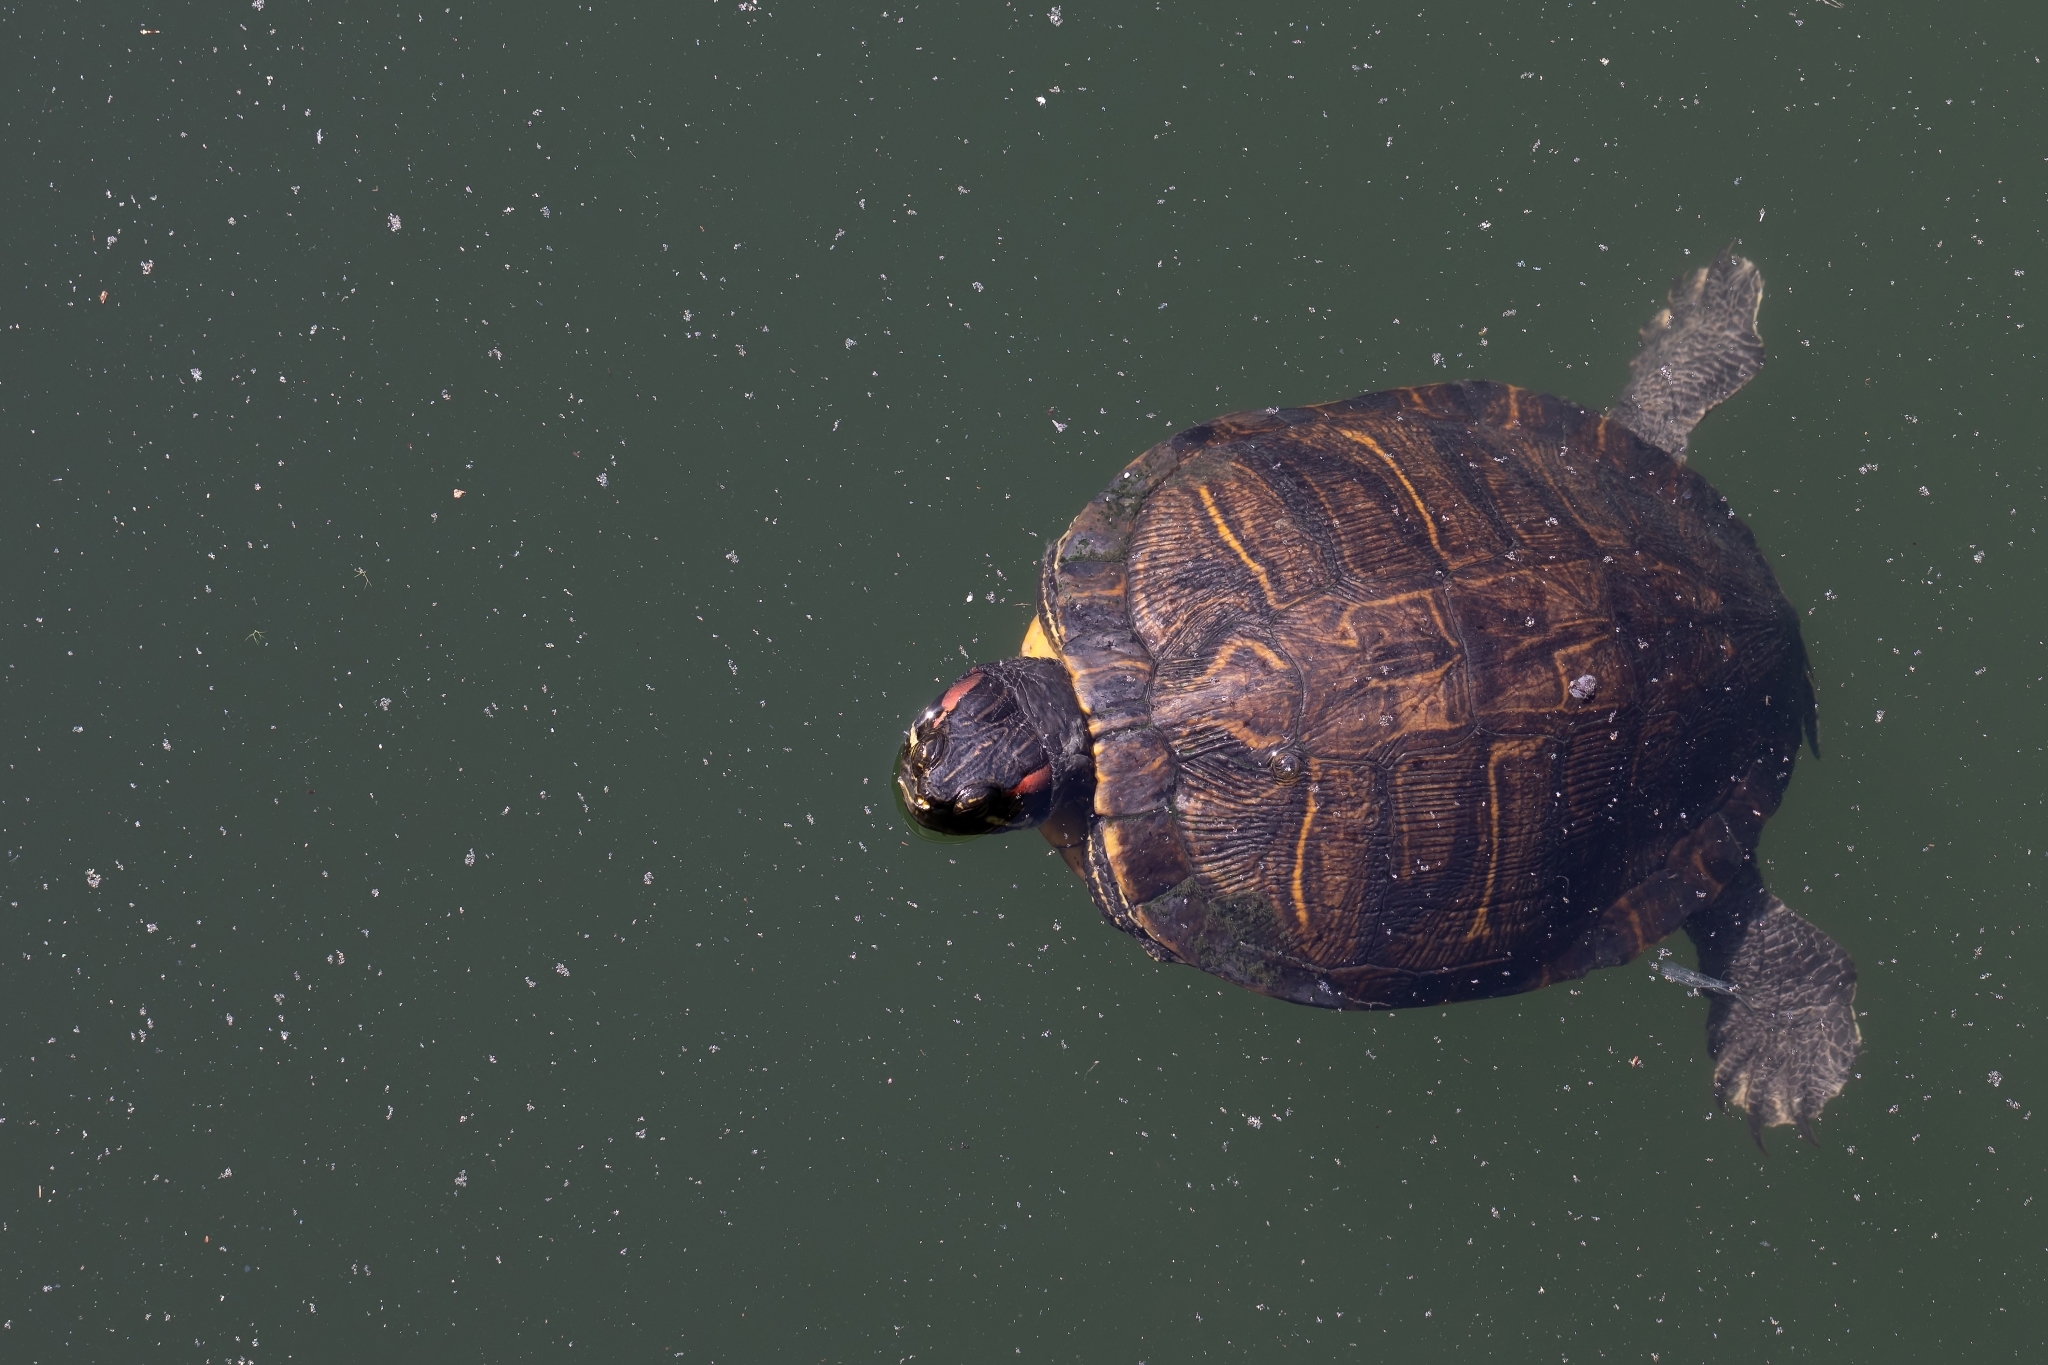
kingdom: Animalia
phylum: Chordata
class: Testudines
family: Emydidae
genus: Trachemys
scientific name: Trachemys scripta
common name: Slider
